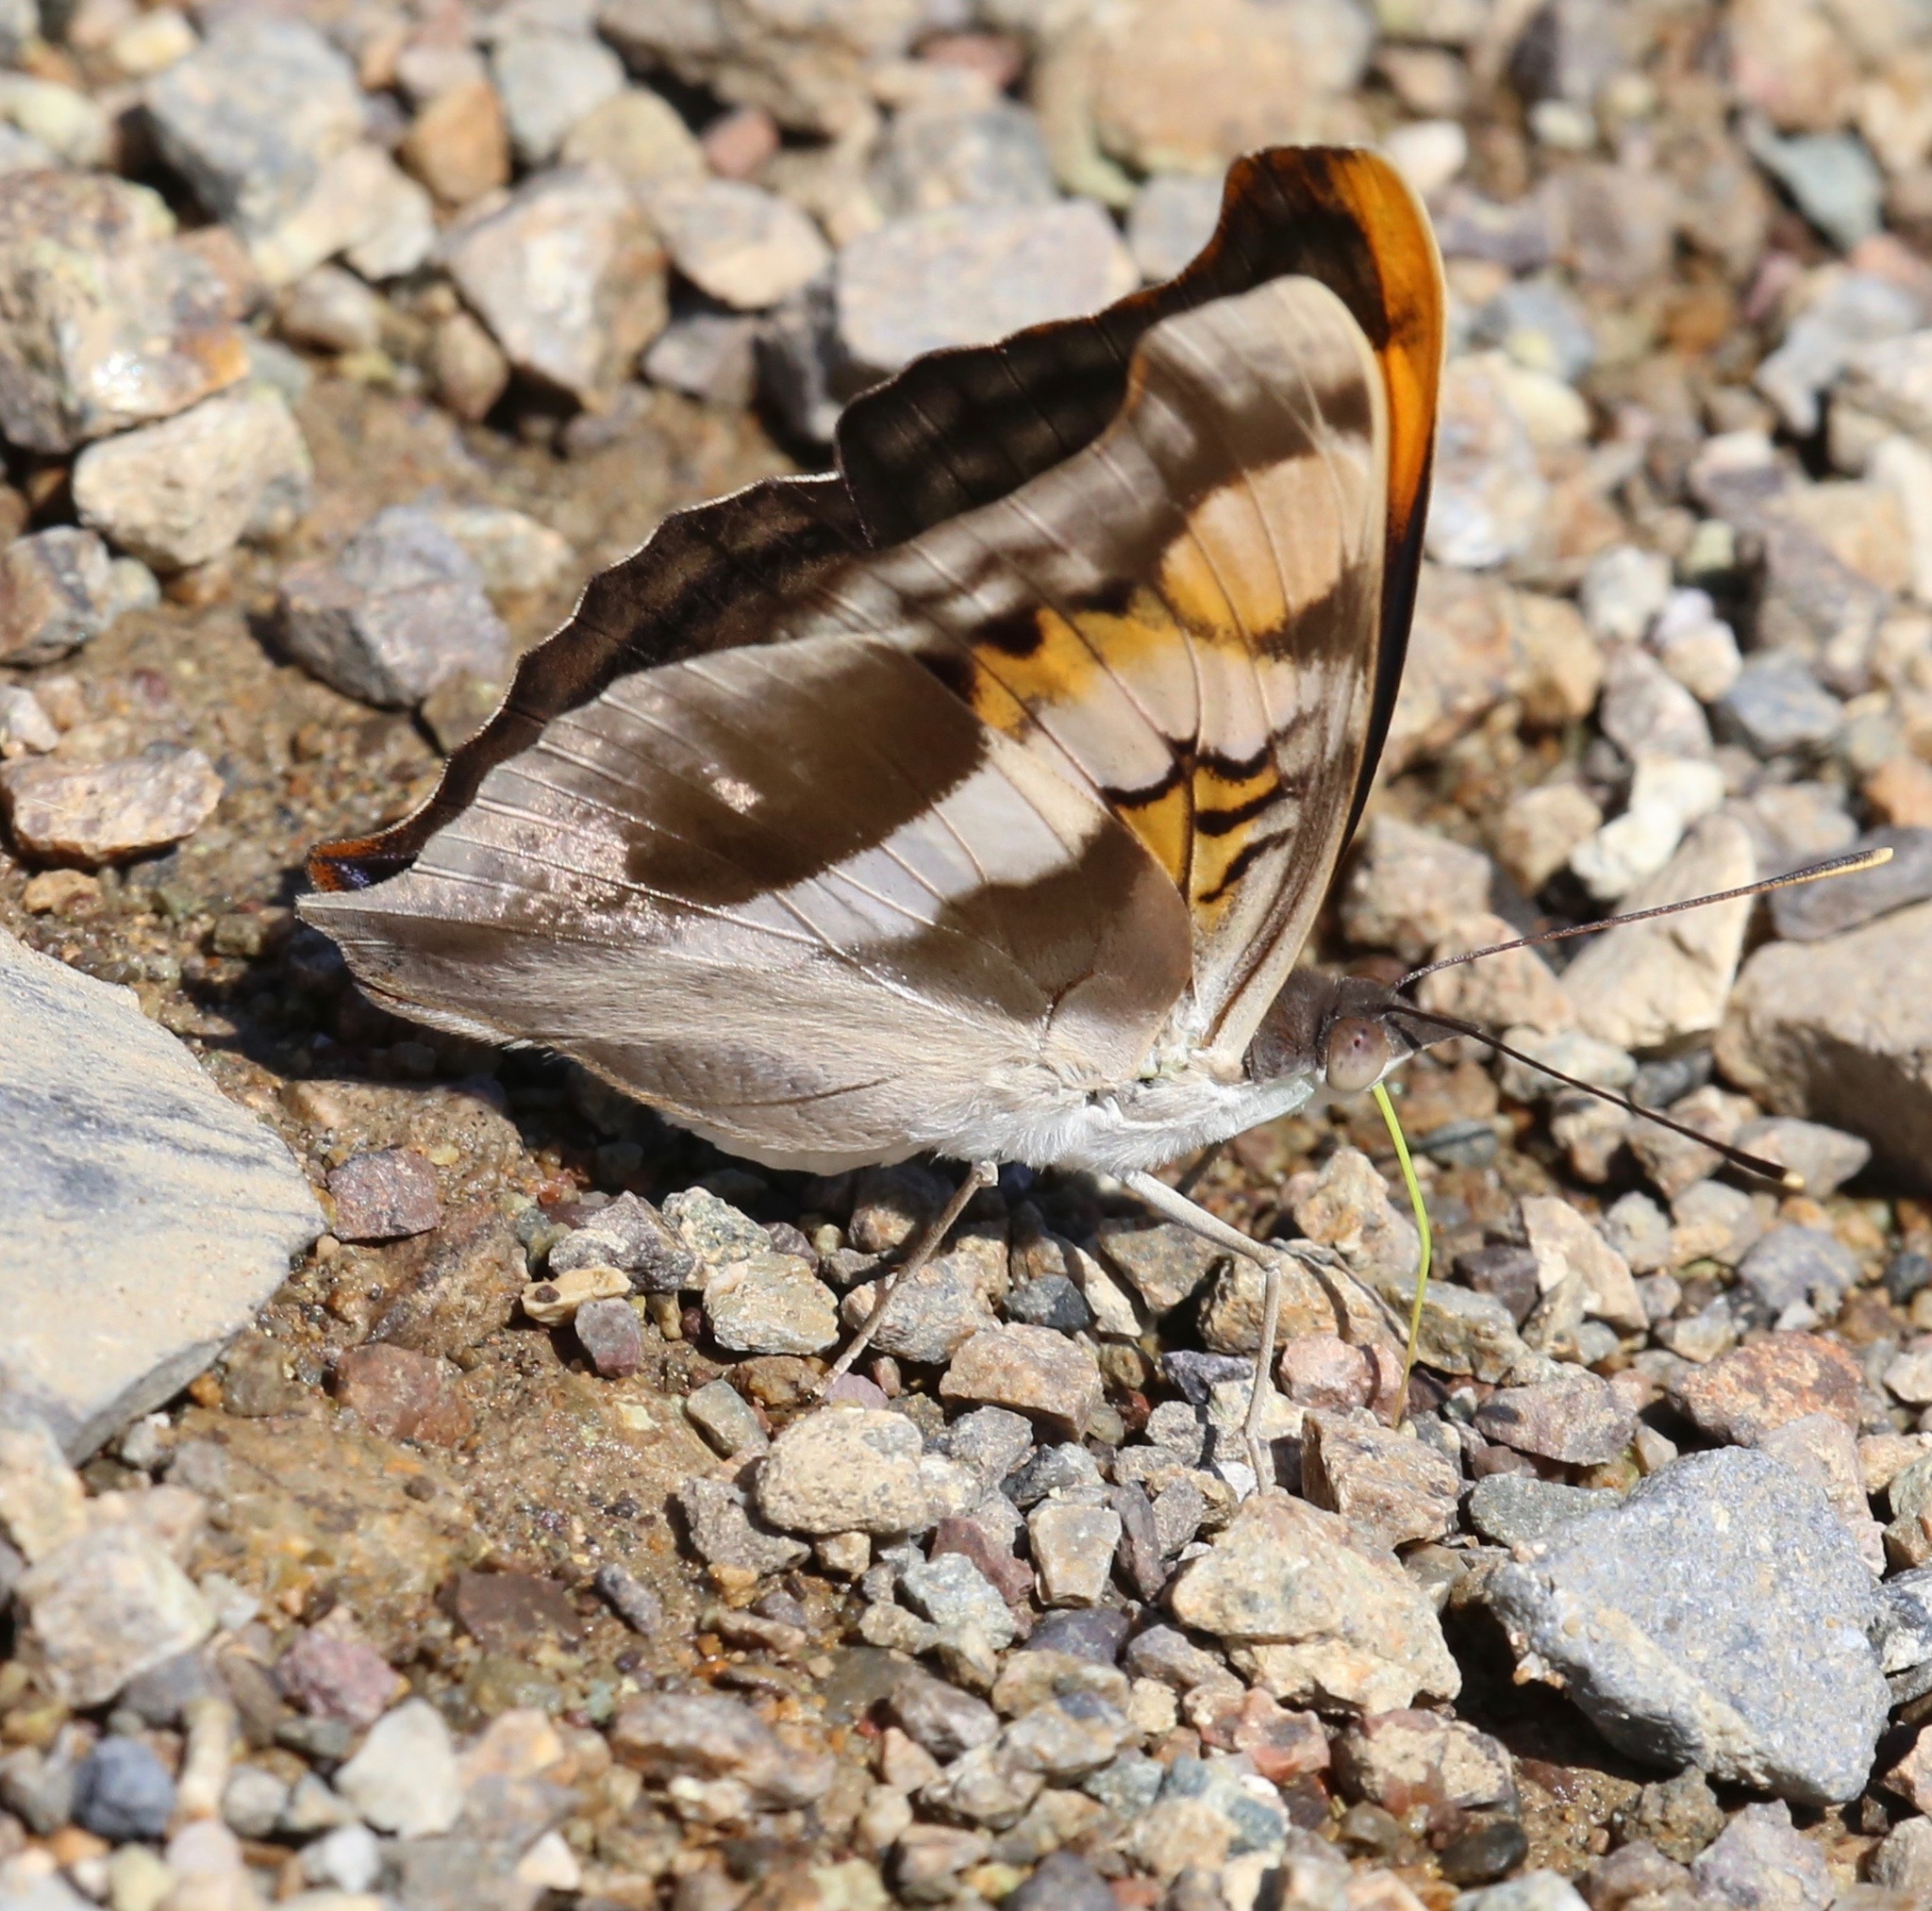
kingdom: Animalia
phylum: Arthropoda
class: Insecta
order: Lepidoptera
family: Nymphalidae
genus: Doxocopa
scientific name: Doxocopa laure
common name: Silver emperor
